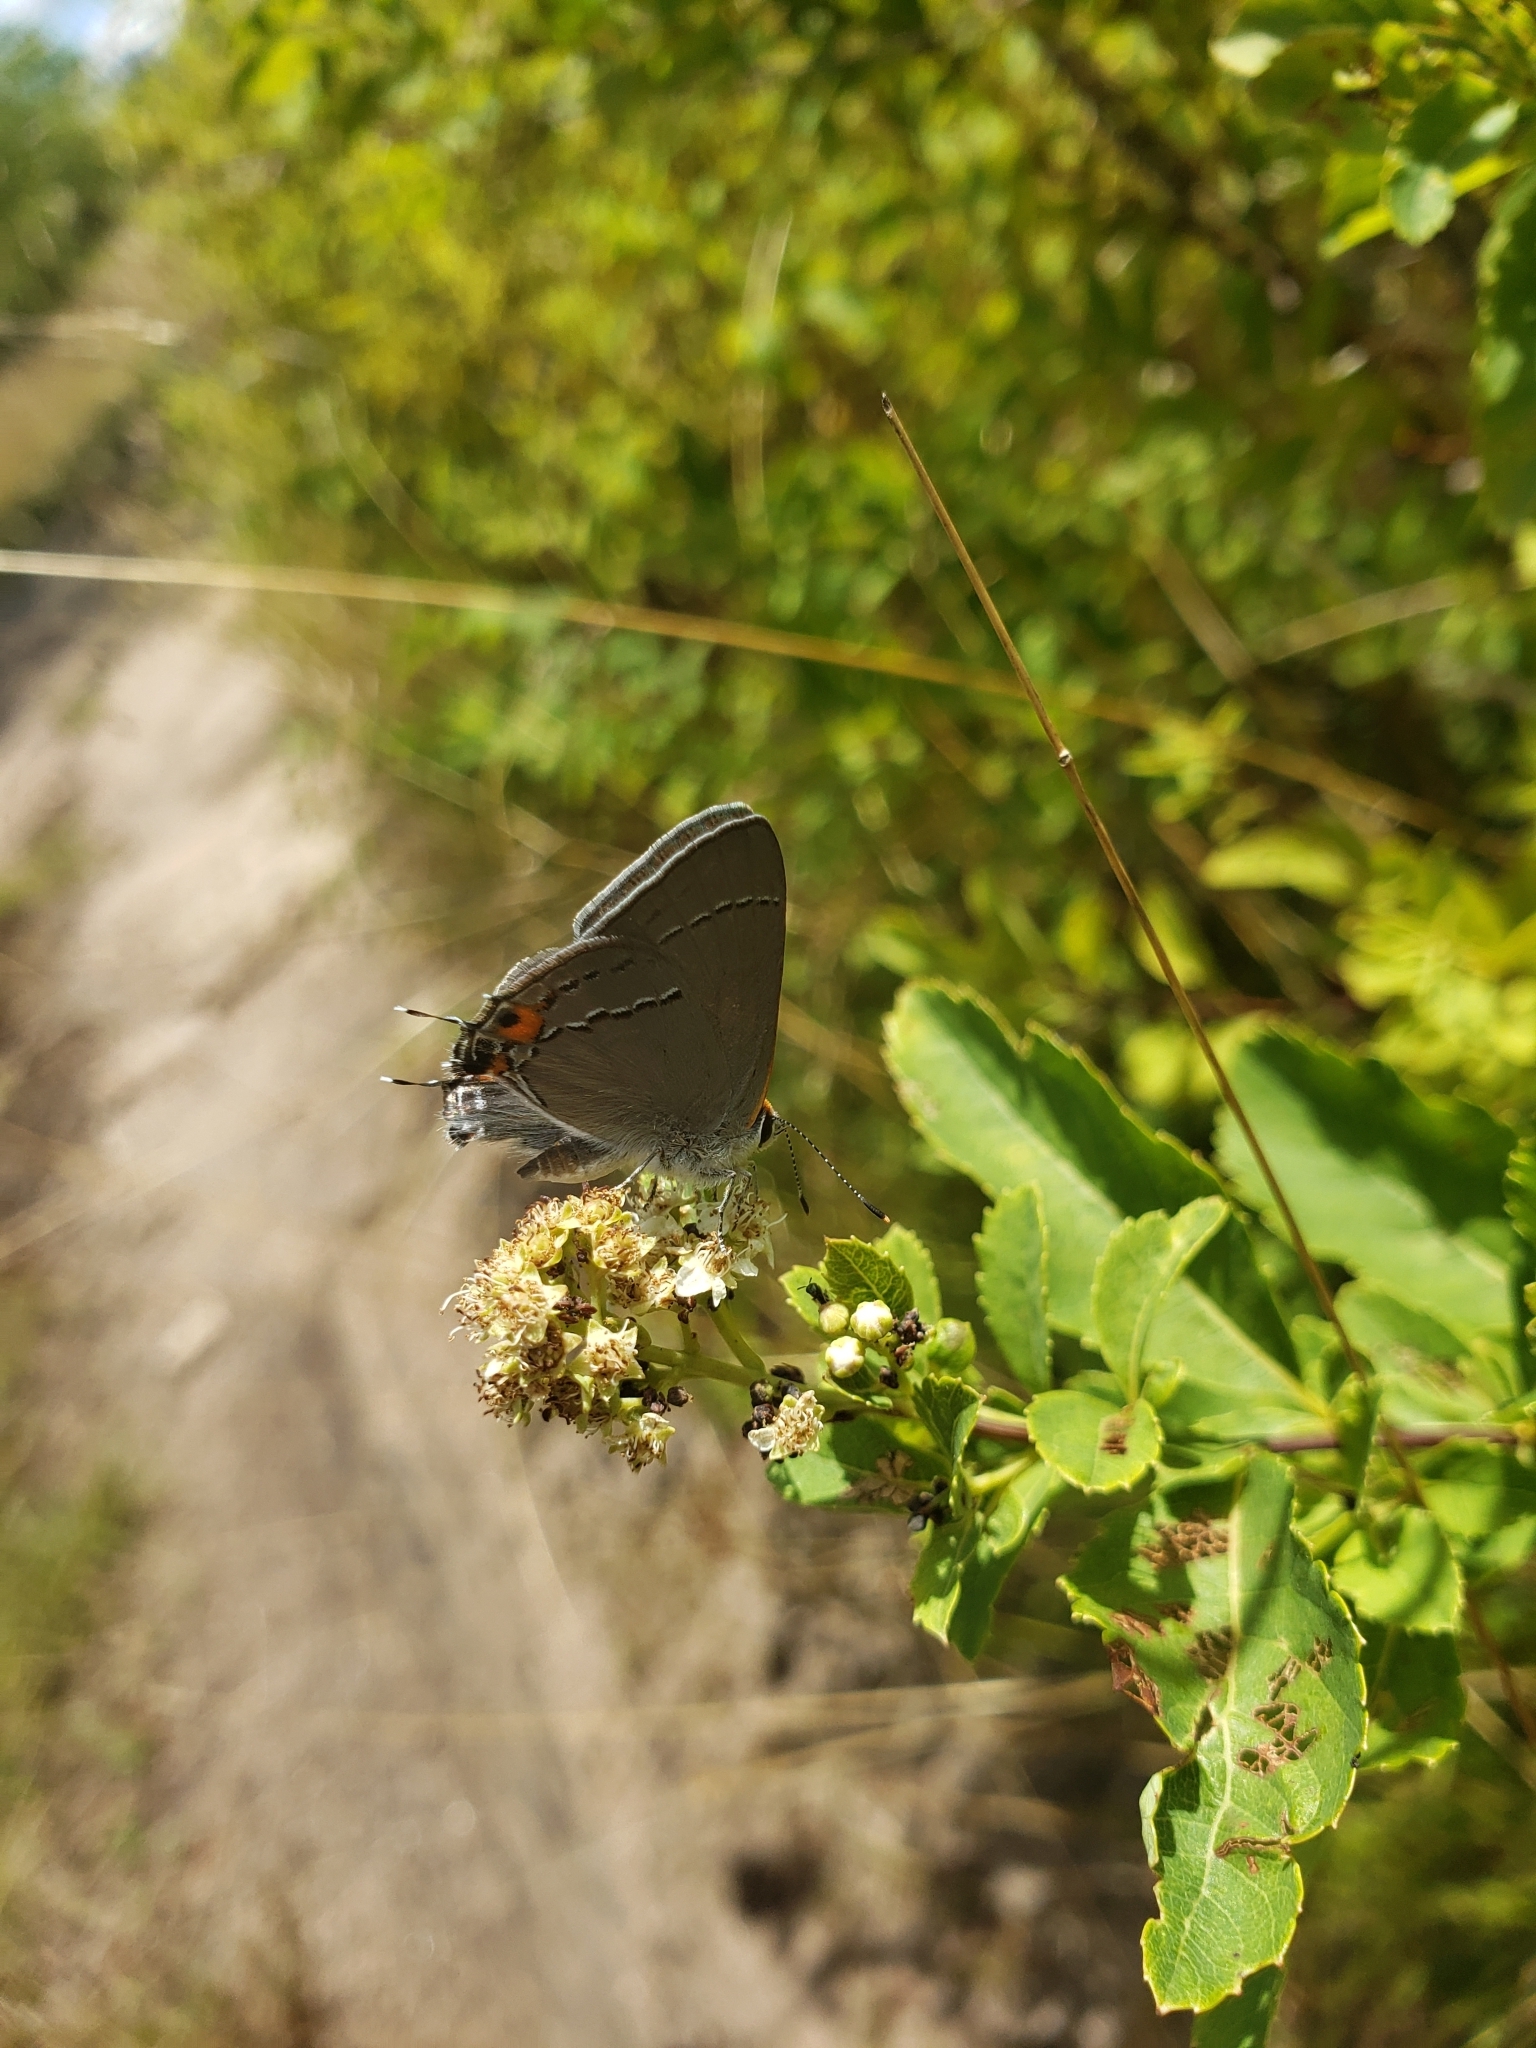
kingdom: Animalia
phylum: Arthropoda
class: Insecta
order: Lepidoptera
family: Lycaenidae
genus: Strymon
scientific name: Strymon melinus
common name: Gray hairstreak
